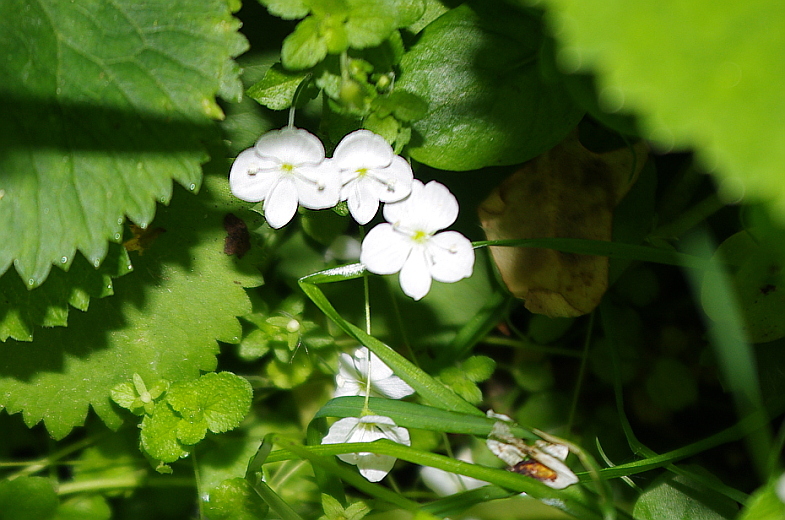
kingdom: Plantae
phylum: Tracheophyta
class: Magnoliopsida
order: Lamiales
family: Plantaginaceae
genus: Veronica
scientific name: Veronica filiformis
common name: Slender speedwell
